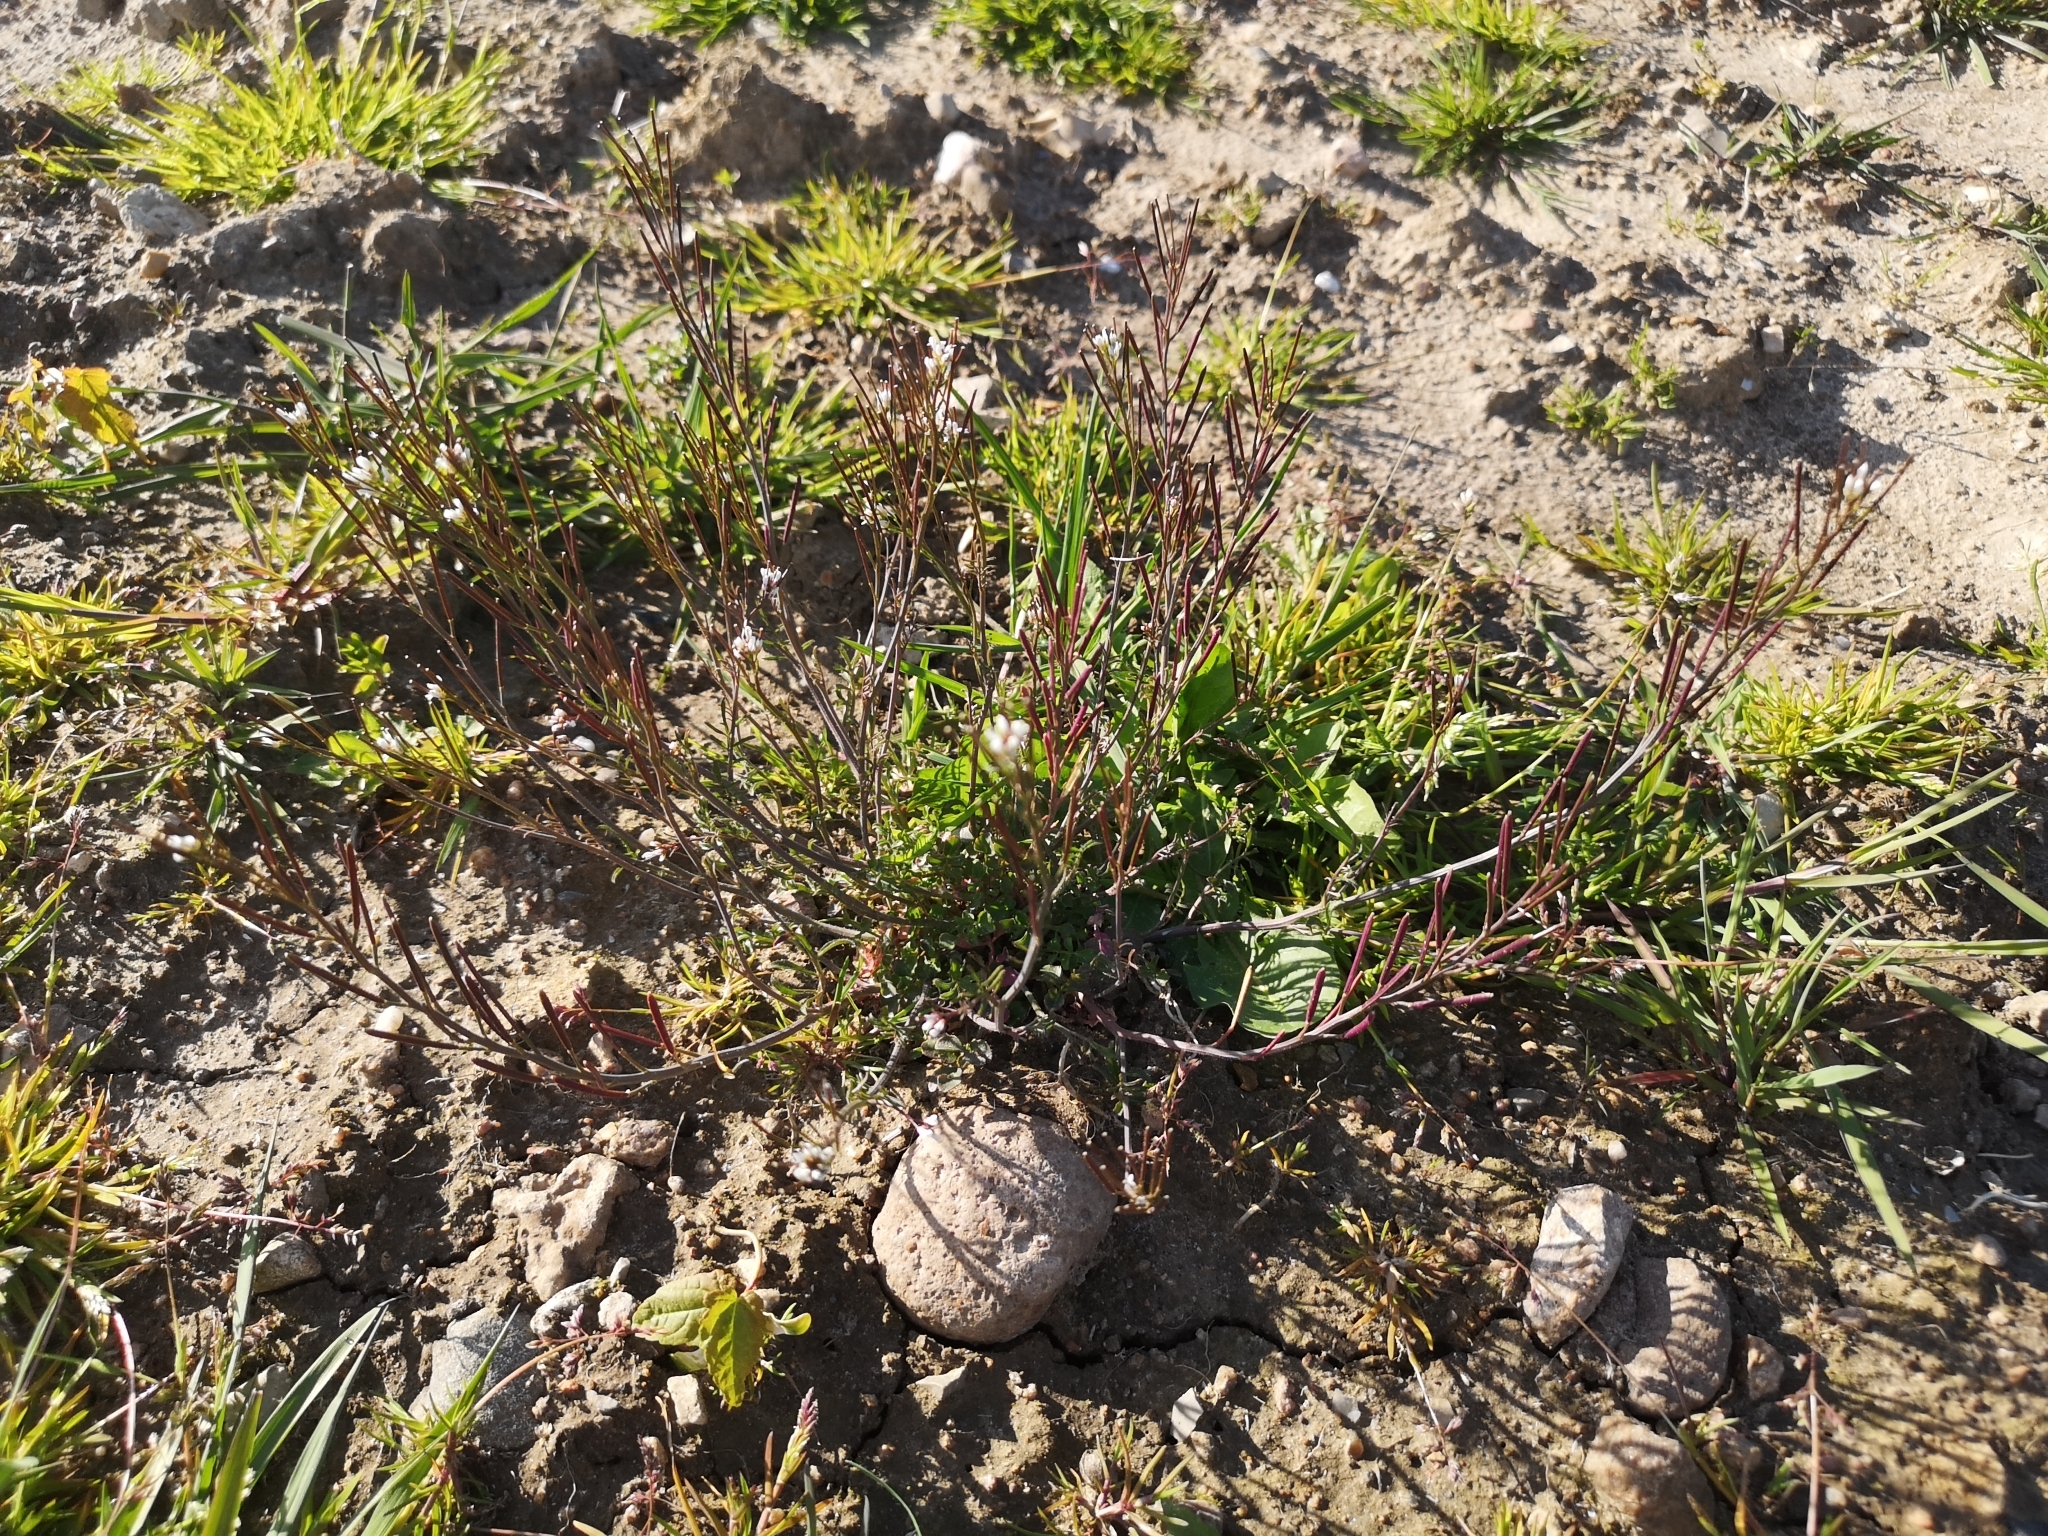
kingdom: Plantae
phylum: Tracheophyta
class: Magnoliopsida
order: Brassicales
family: Brassicaceae
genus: Cardamine
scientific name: Cardamine hirsuta
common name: Hairy bittercress
